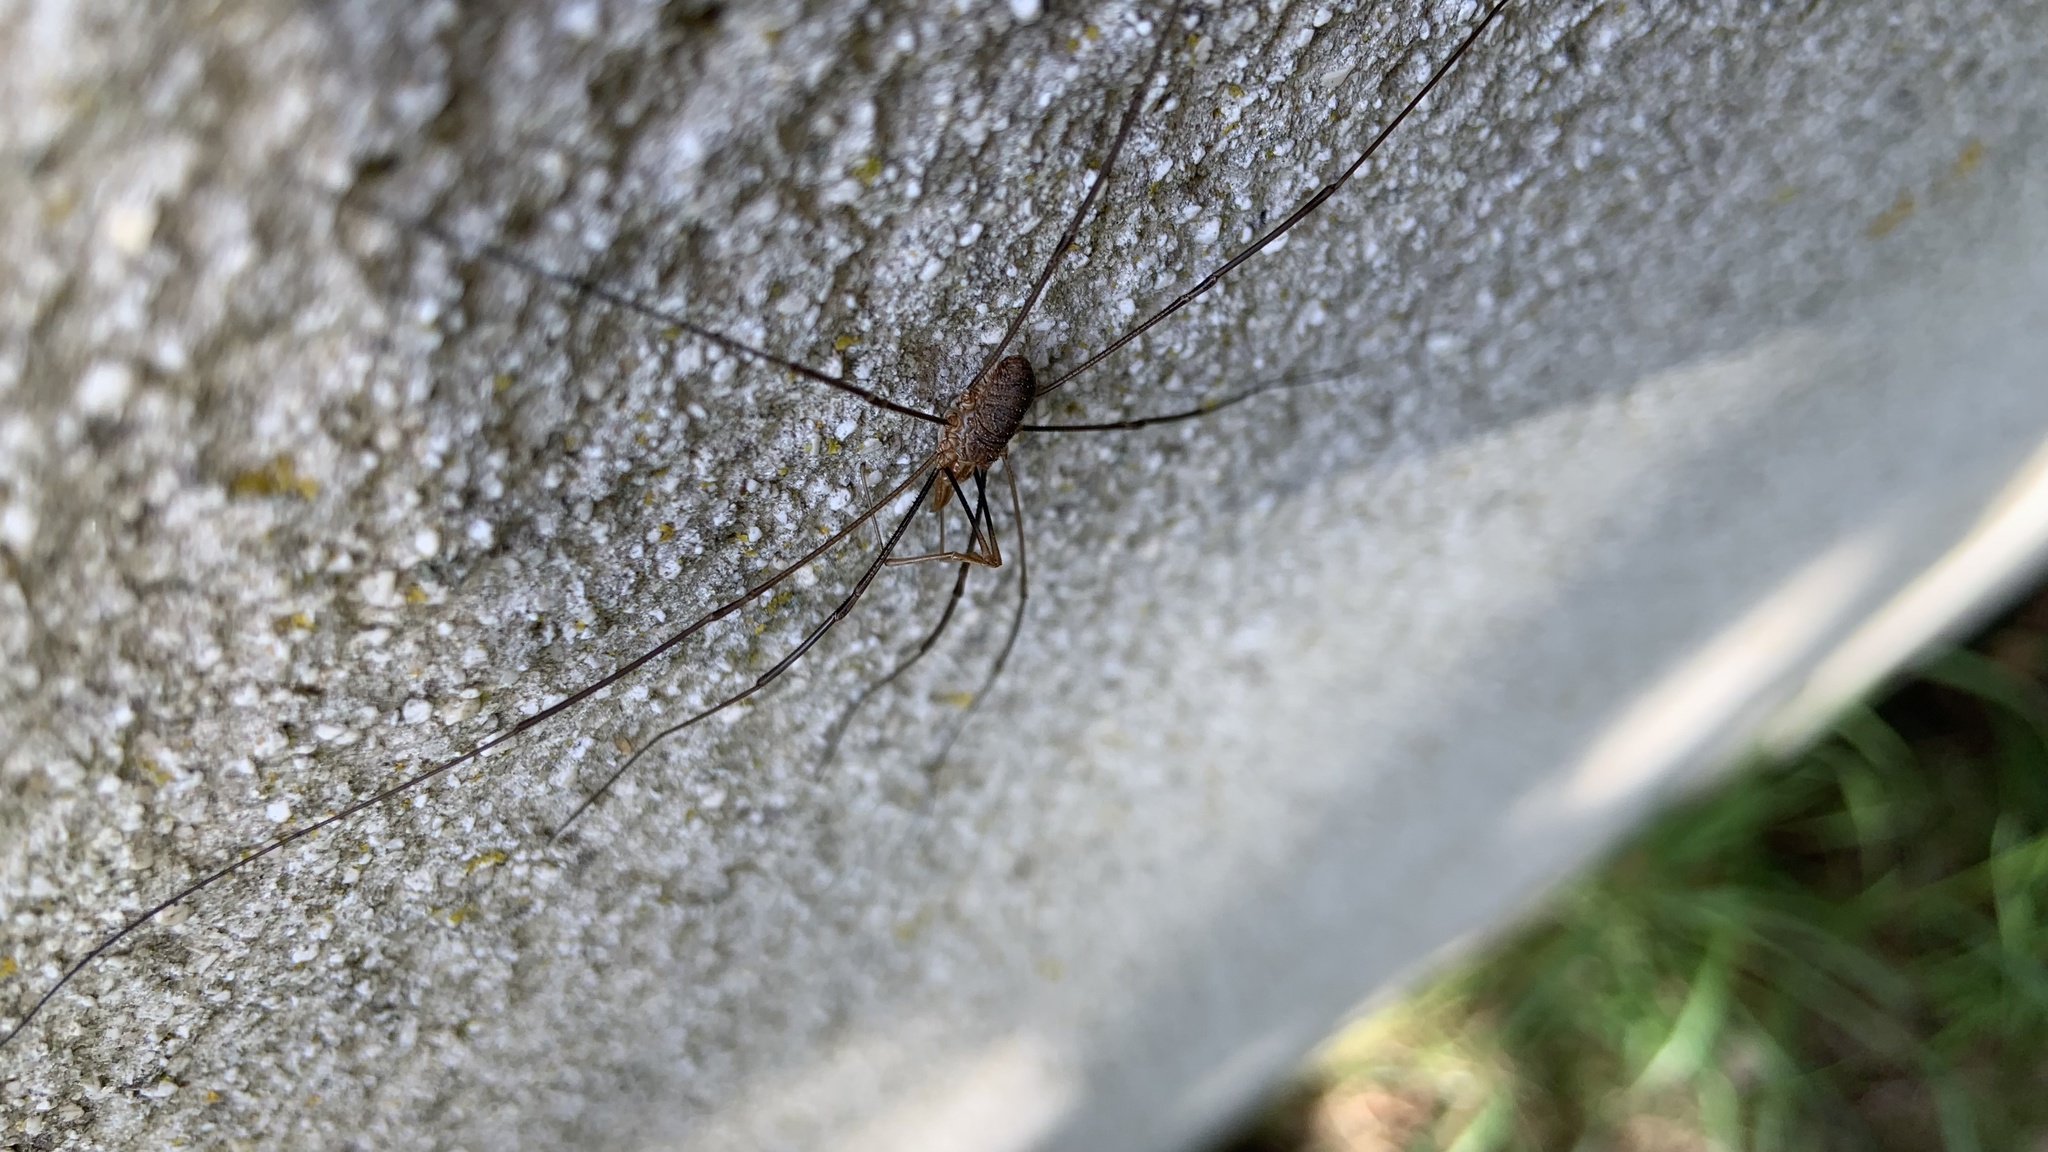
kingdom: Animalia
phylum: Arthropoda
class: Arachnida
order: Opiliones
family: Phalangiidae
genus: Phalangium
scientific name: Phalangium opilio
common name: Daddy longleg
